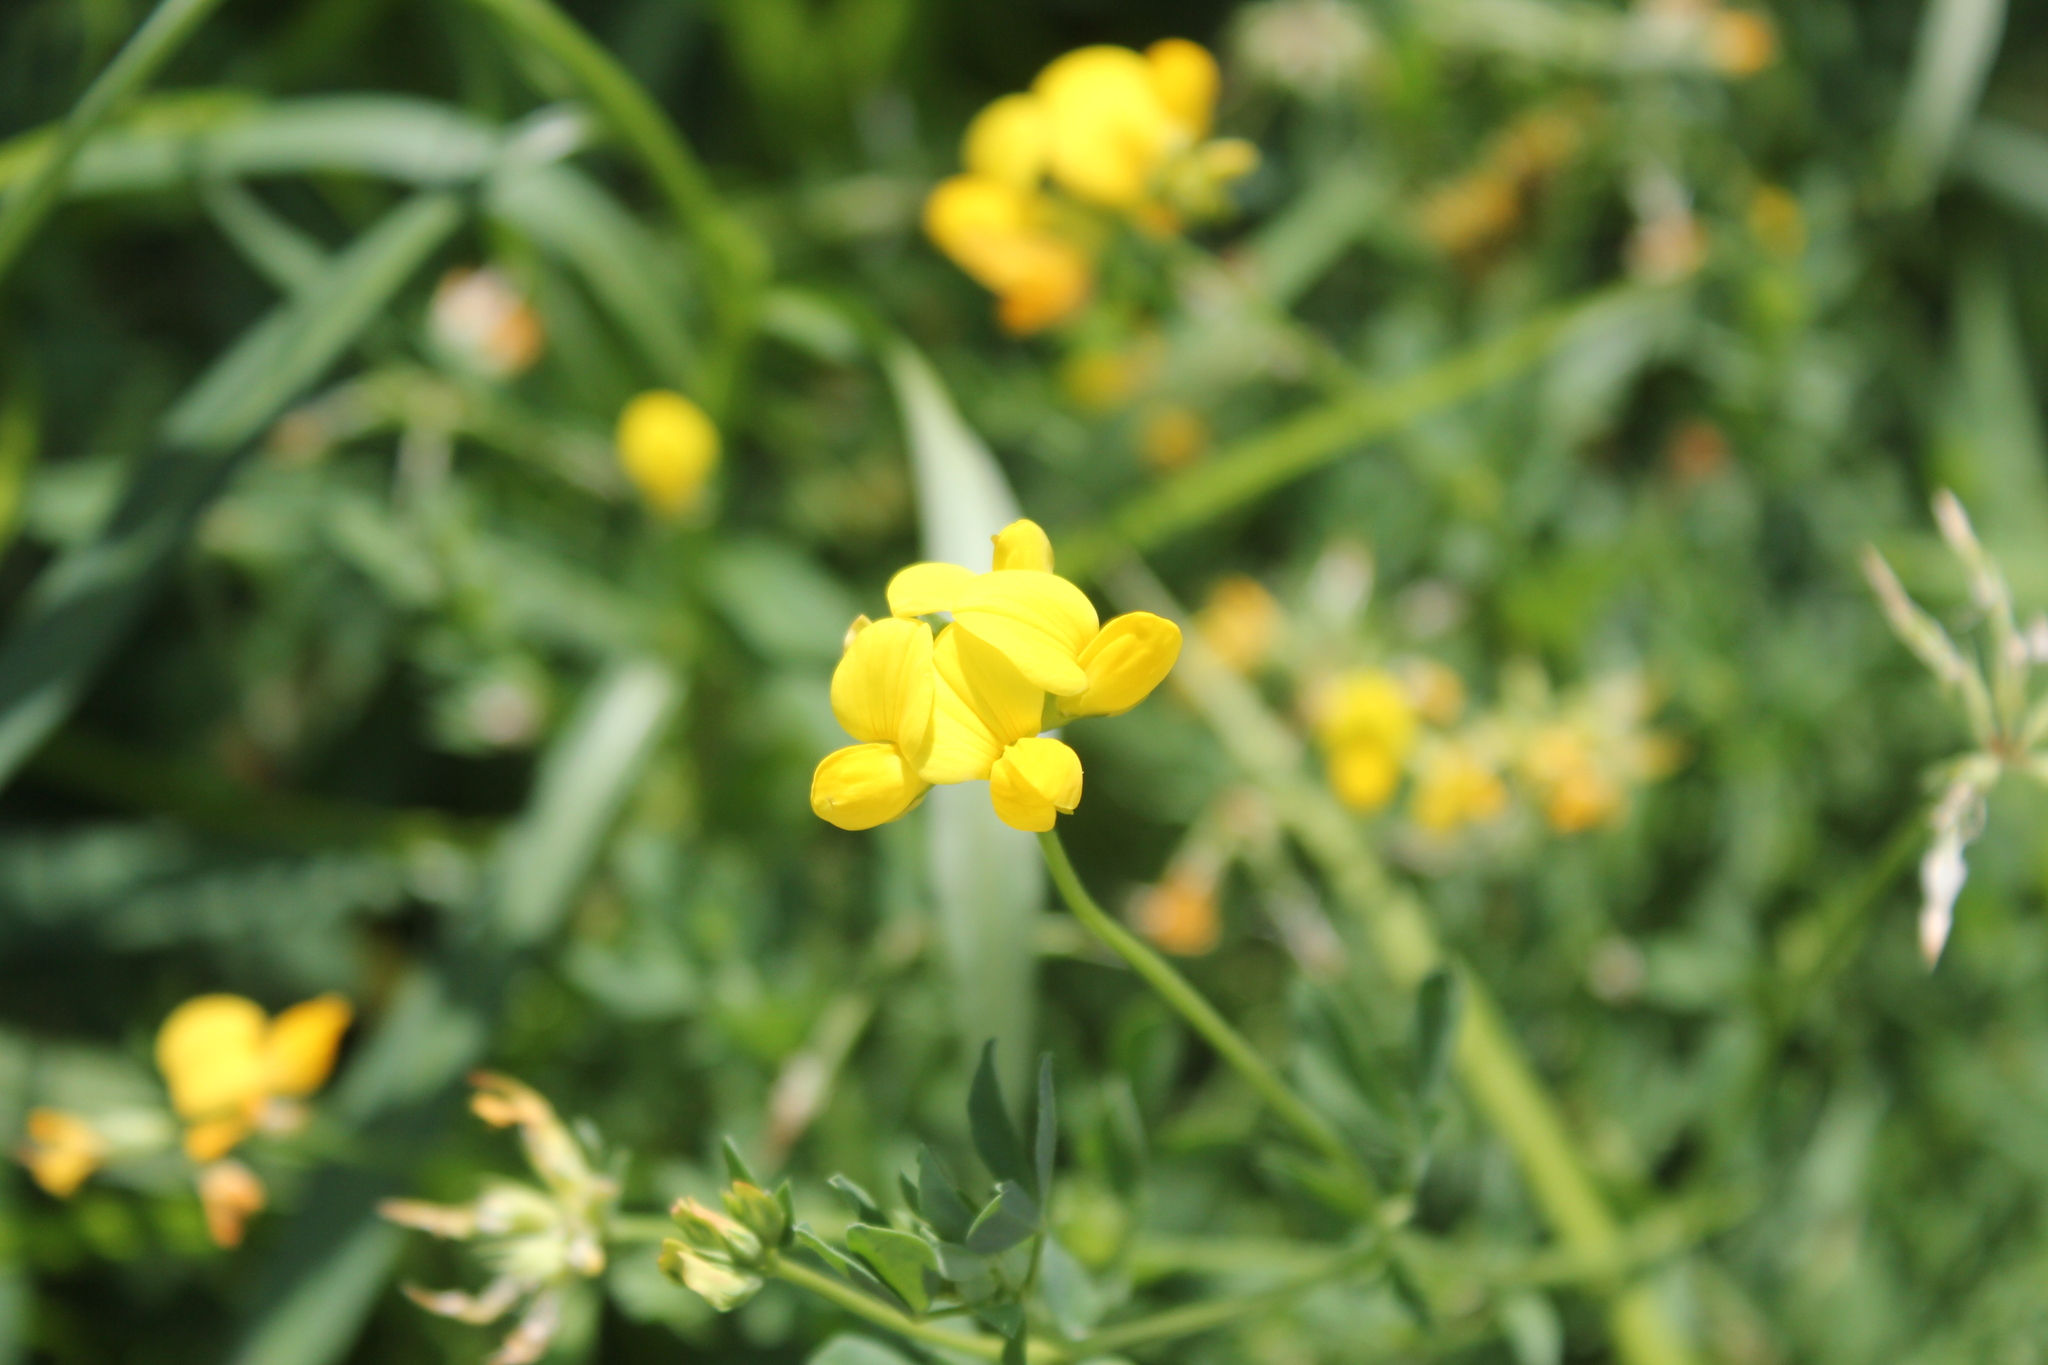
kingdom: Plantae
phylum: Tracheophyta
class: Magnoliopsida
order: Fabales
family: Fabaceae
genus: Lotus
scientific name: Lotus corniculatus
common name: Common bird's-foot-trefoil
